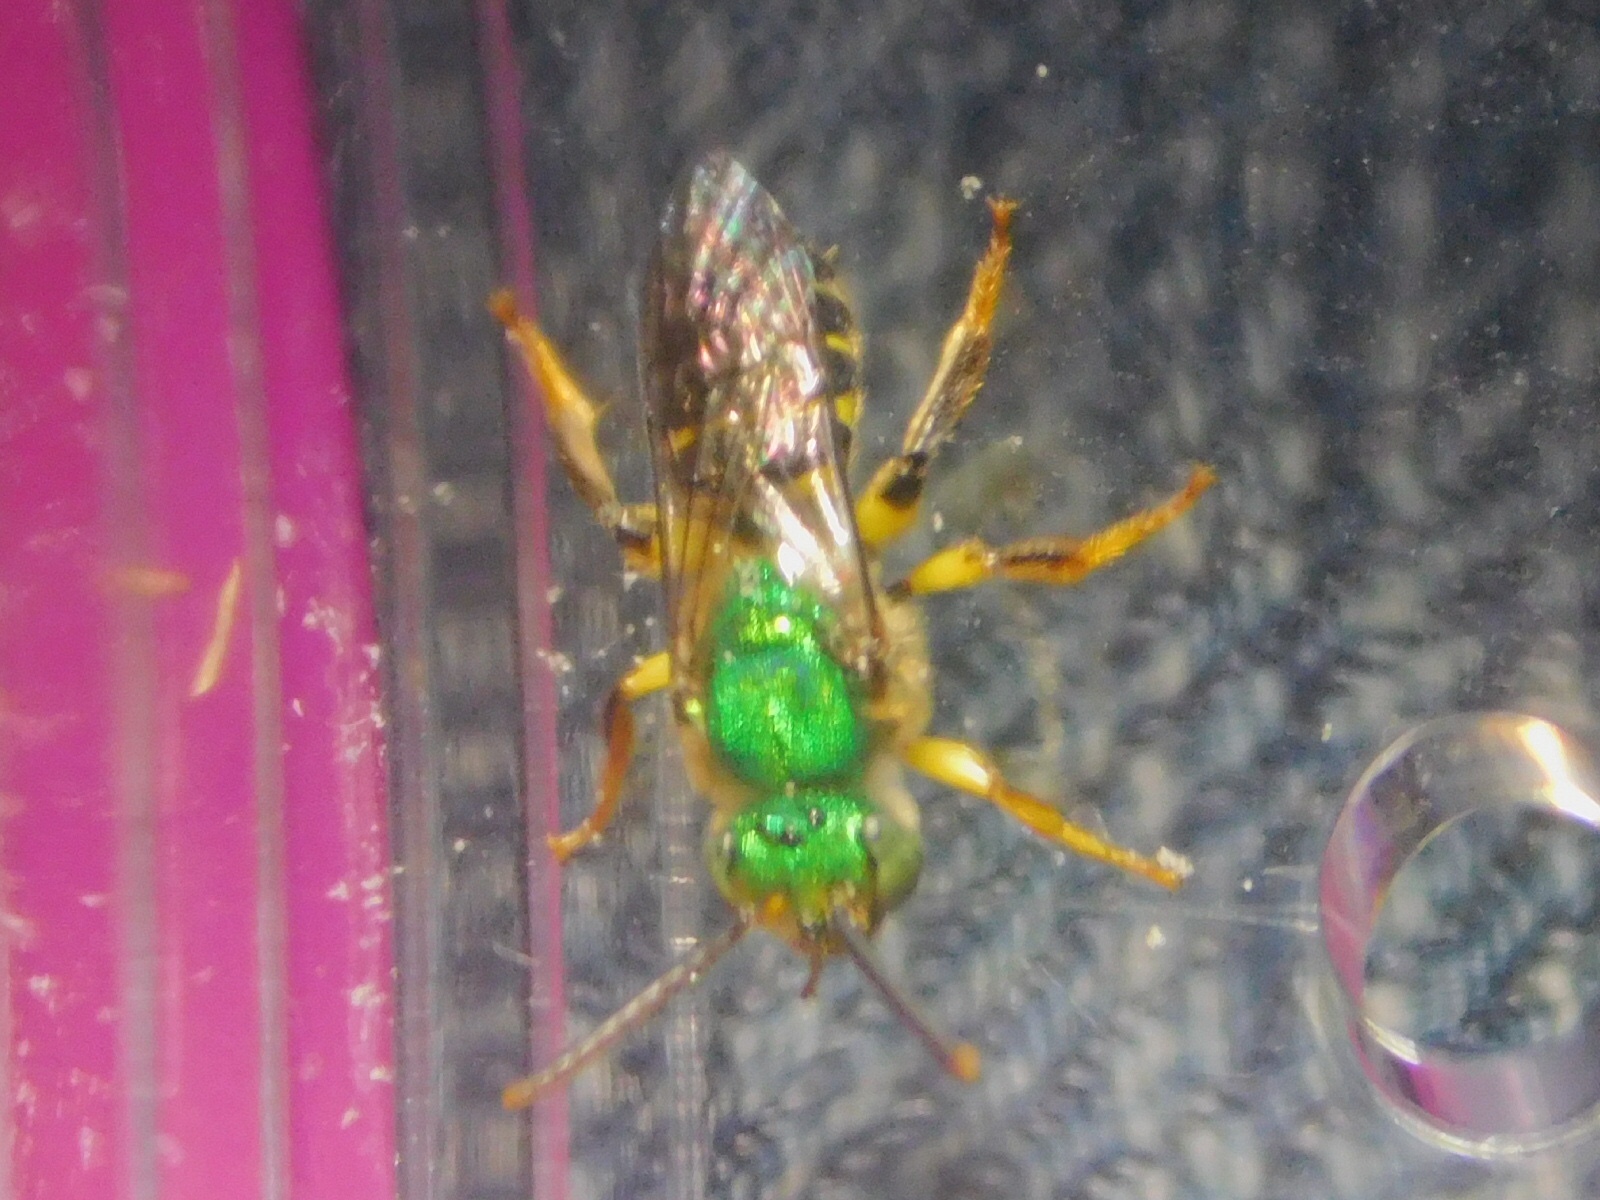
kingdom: Animalia
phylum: Arthropoda
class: Insecta
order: Hymenoptera
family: Halictidae
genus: Agapostemon
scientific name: Agapostemon poeyi
